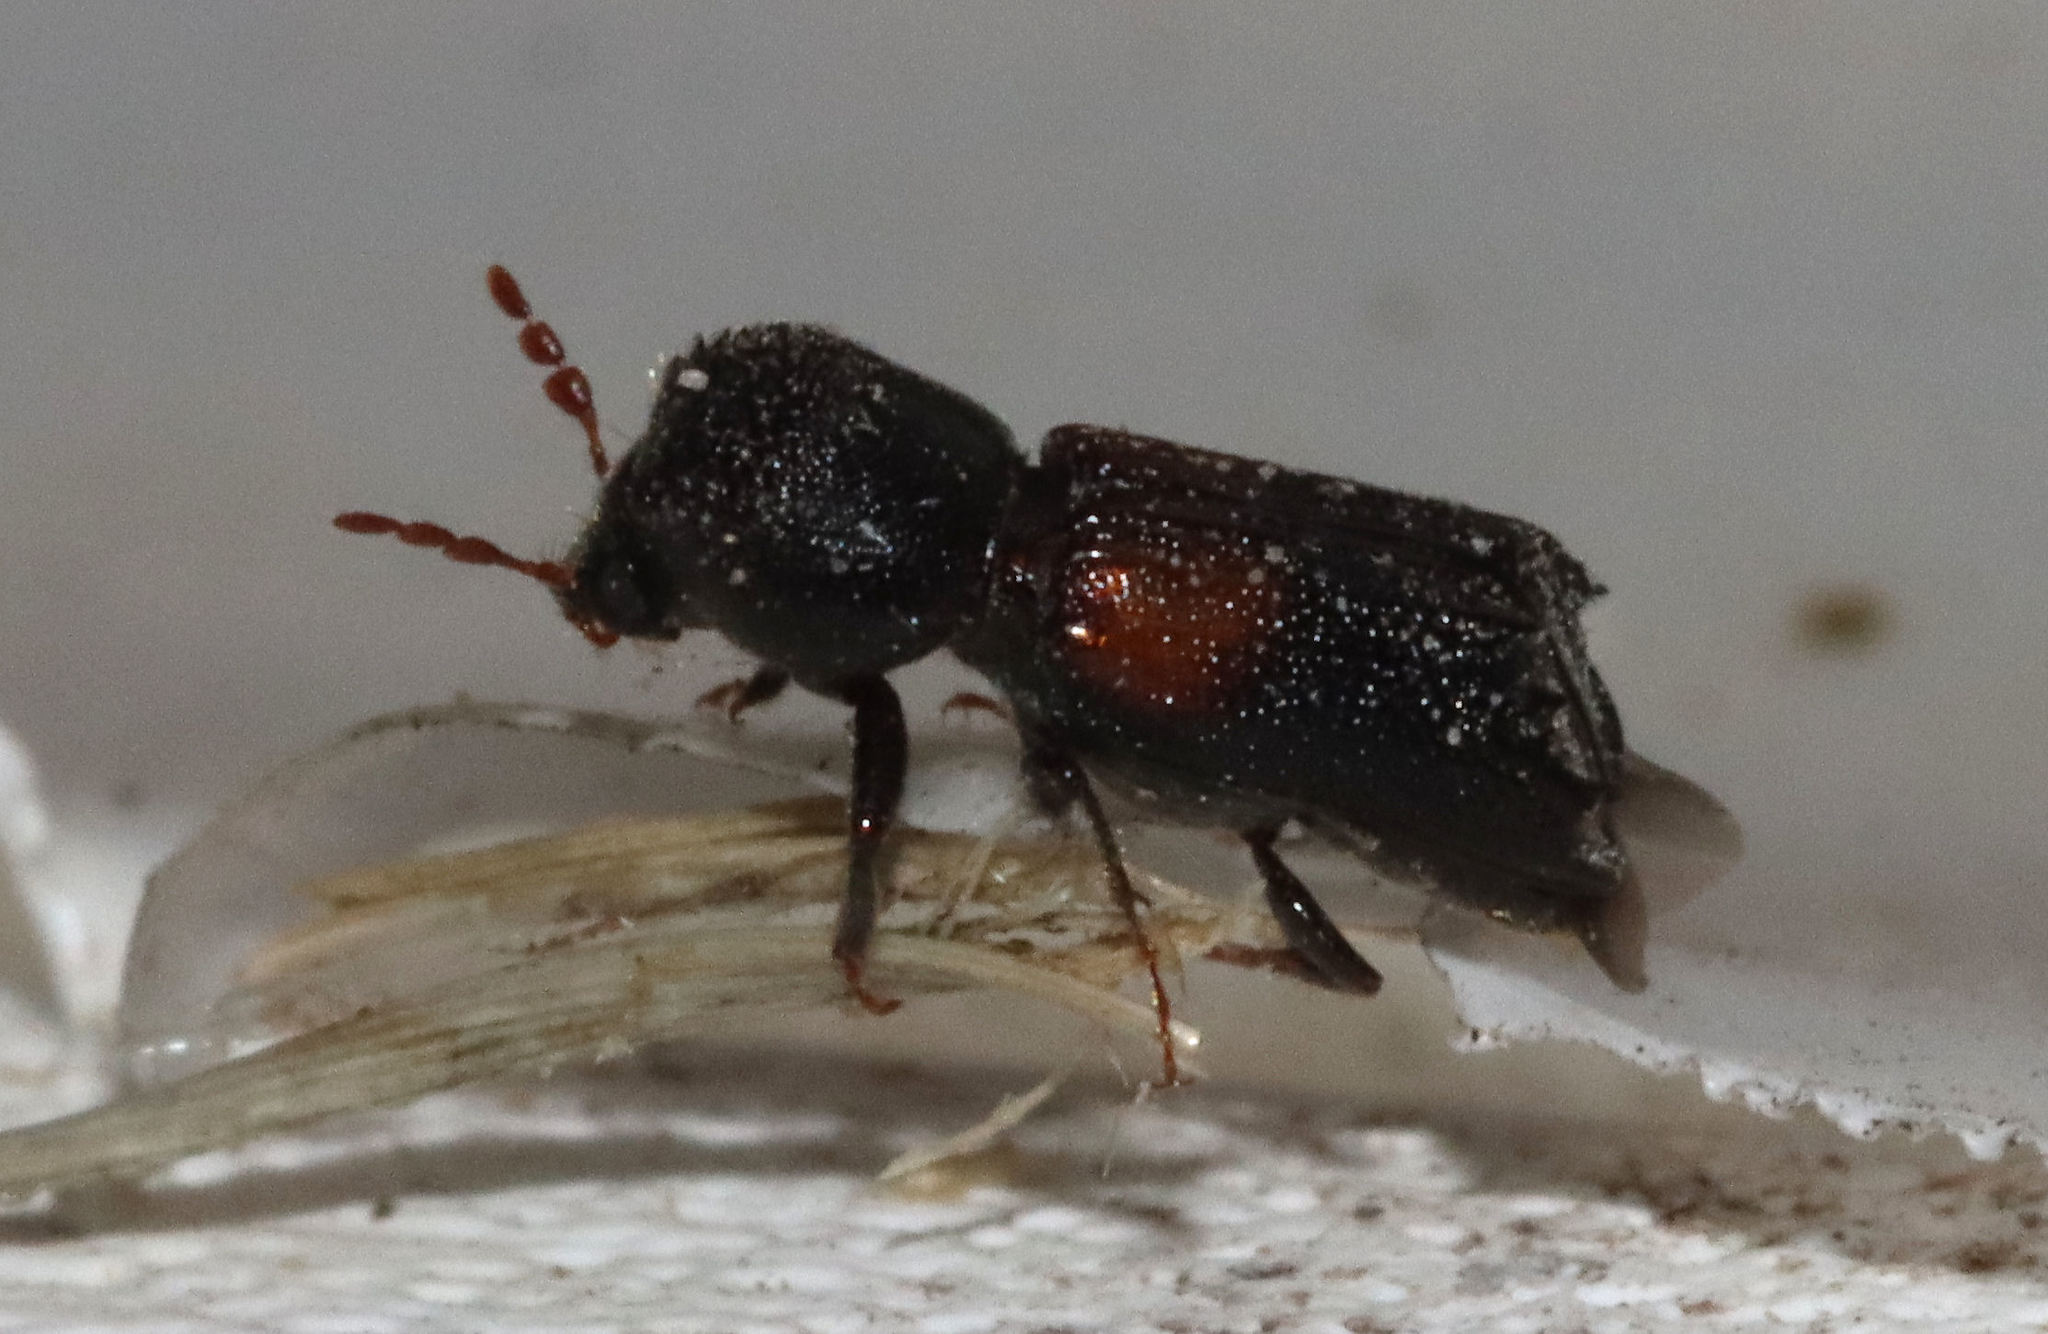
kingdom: Animalia
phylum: Arthropoda
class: Insecta
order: Coleoptera
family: Bostrichidae
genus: Xylobiops
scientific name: Xylobiops basilaris
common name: Red-shouldered bostrichid
